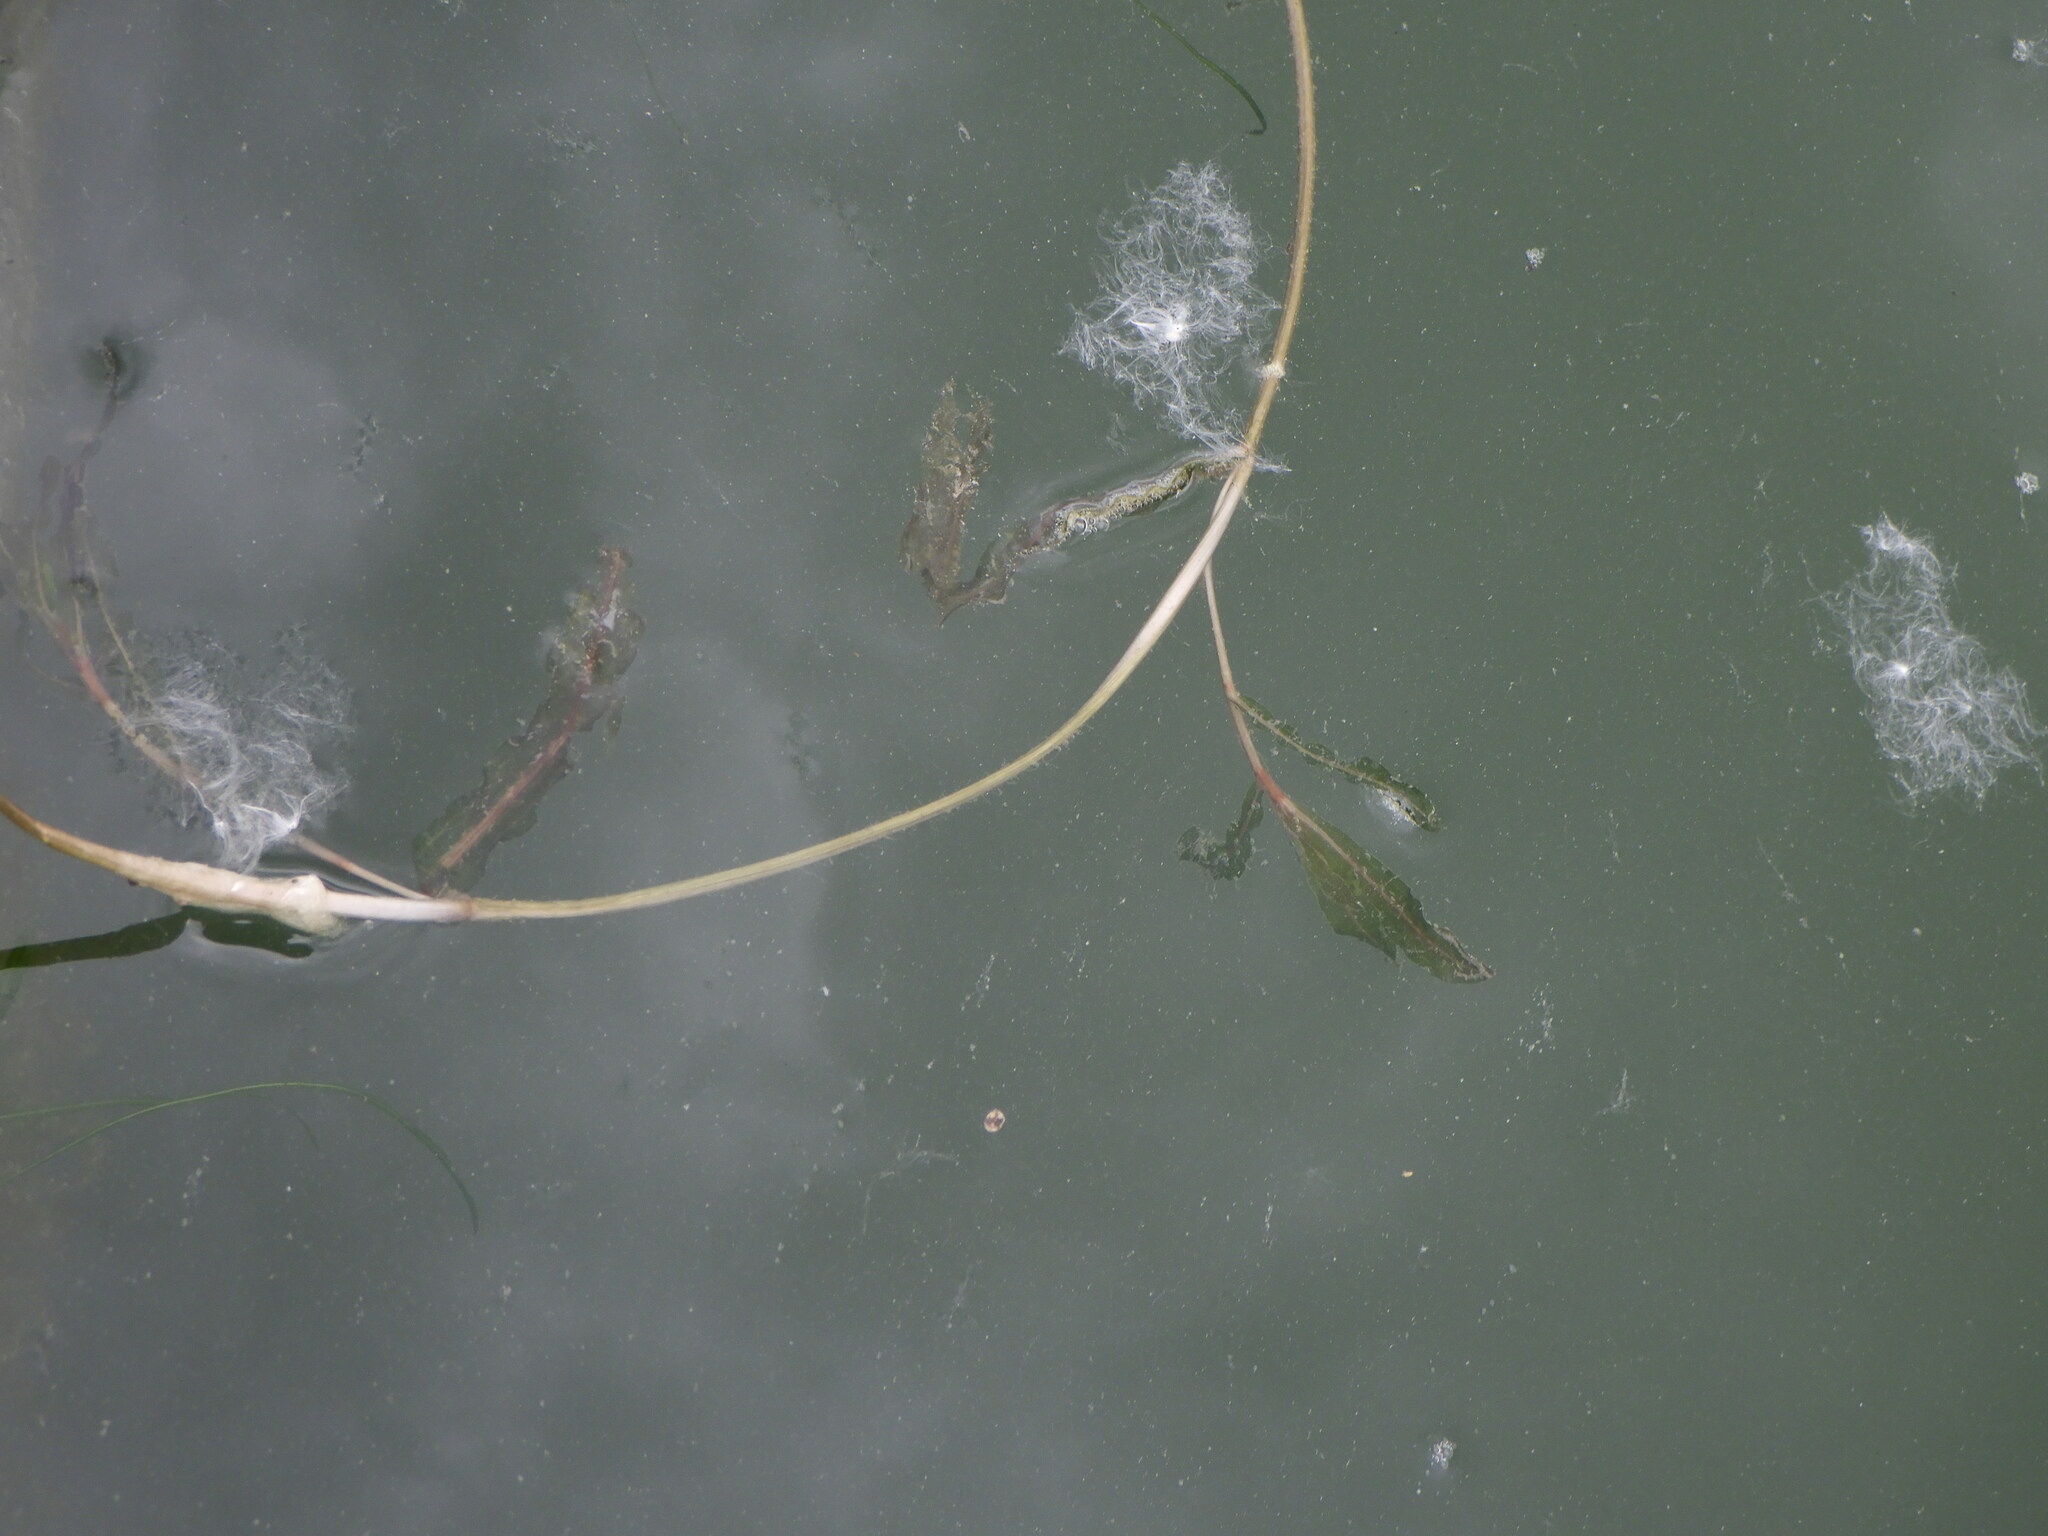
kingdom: Plantae
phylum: Tracheophyta
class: Liliopsida
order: Alismatales
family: Potamogetonaceae
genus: Potamogeton
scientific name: Potamogeton crispus
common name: Curled pondweed
